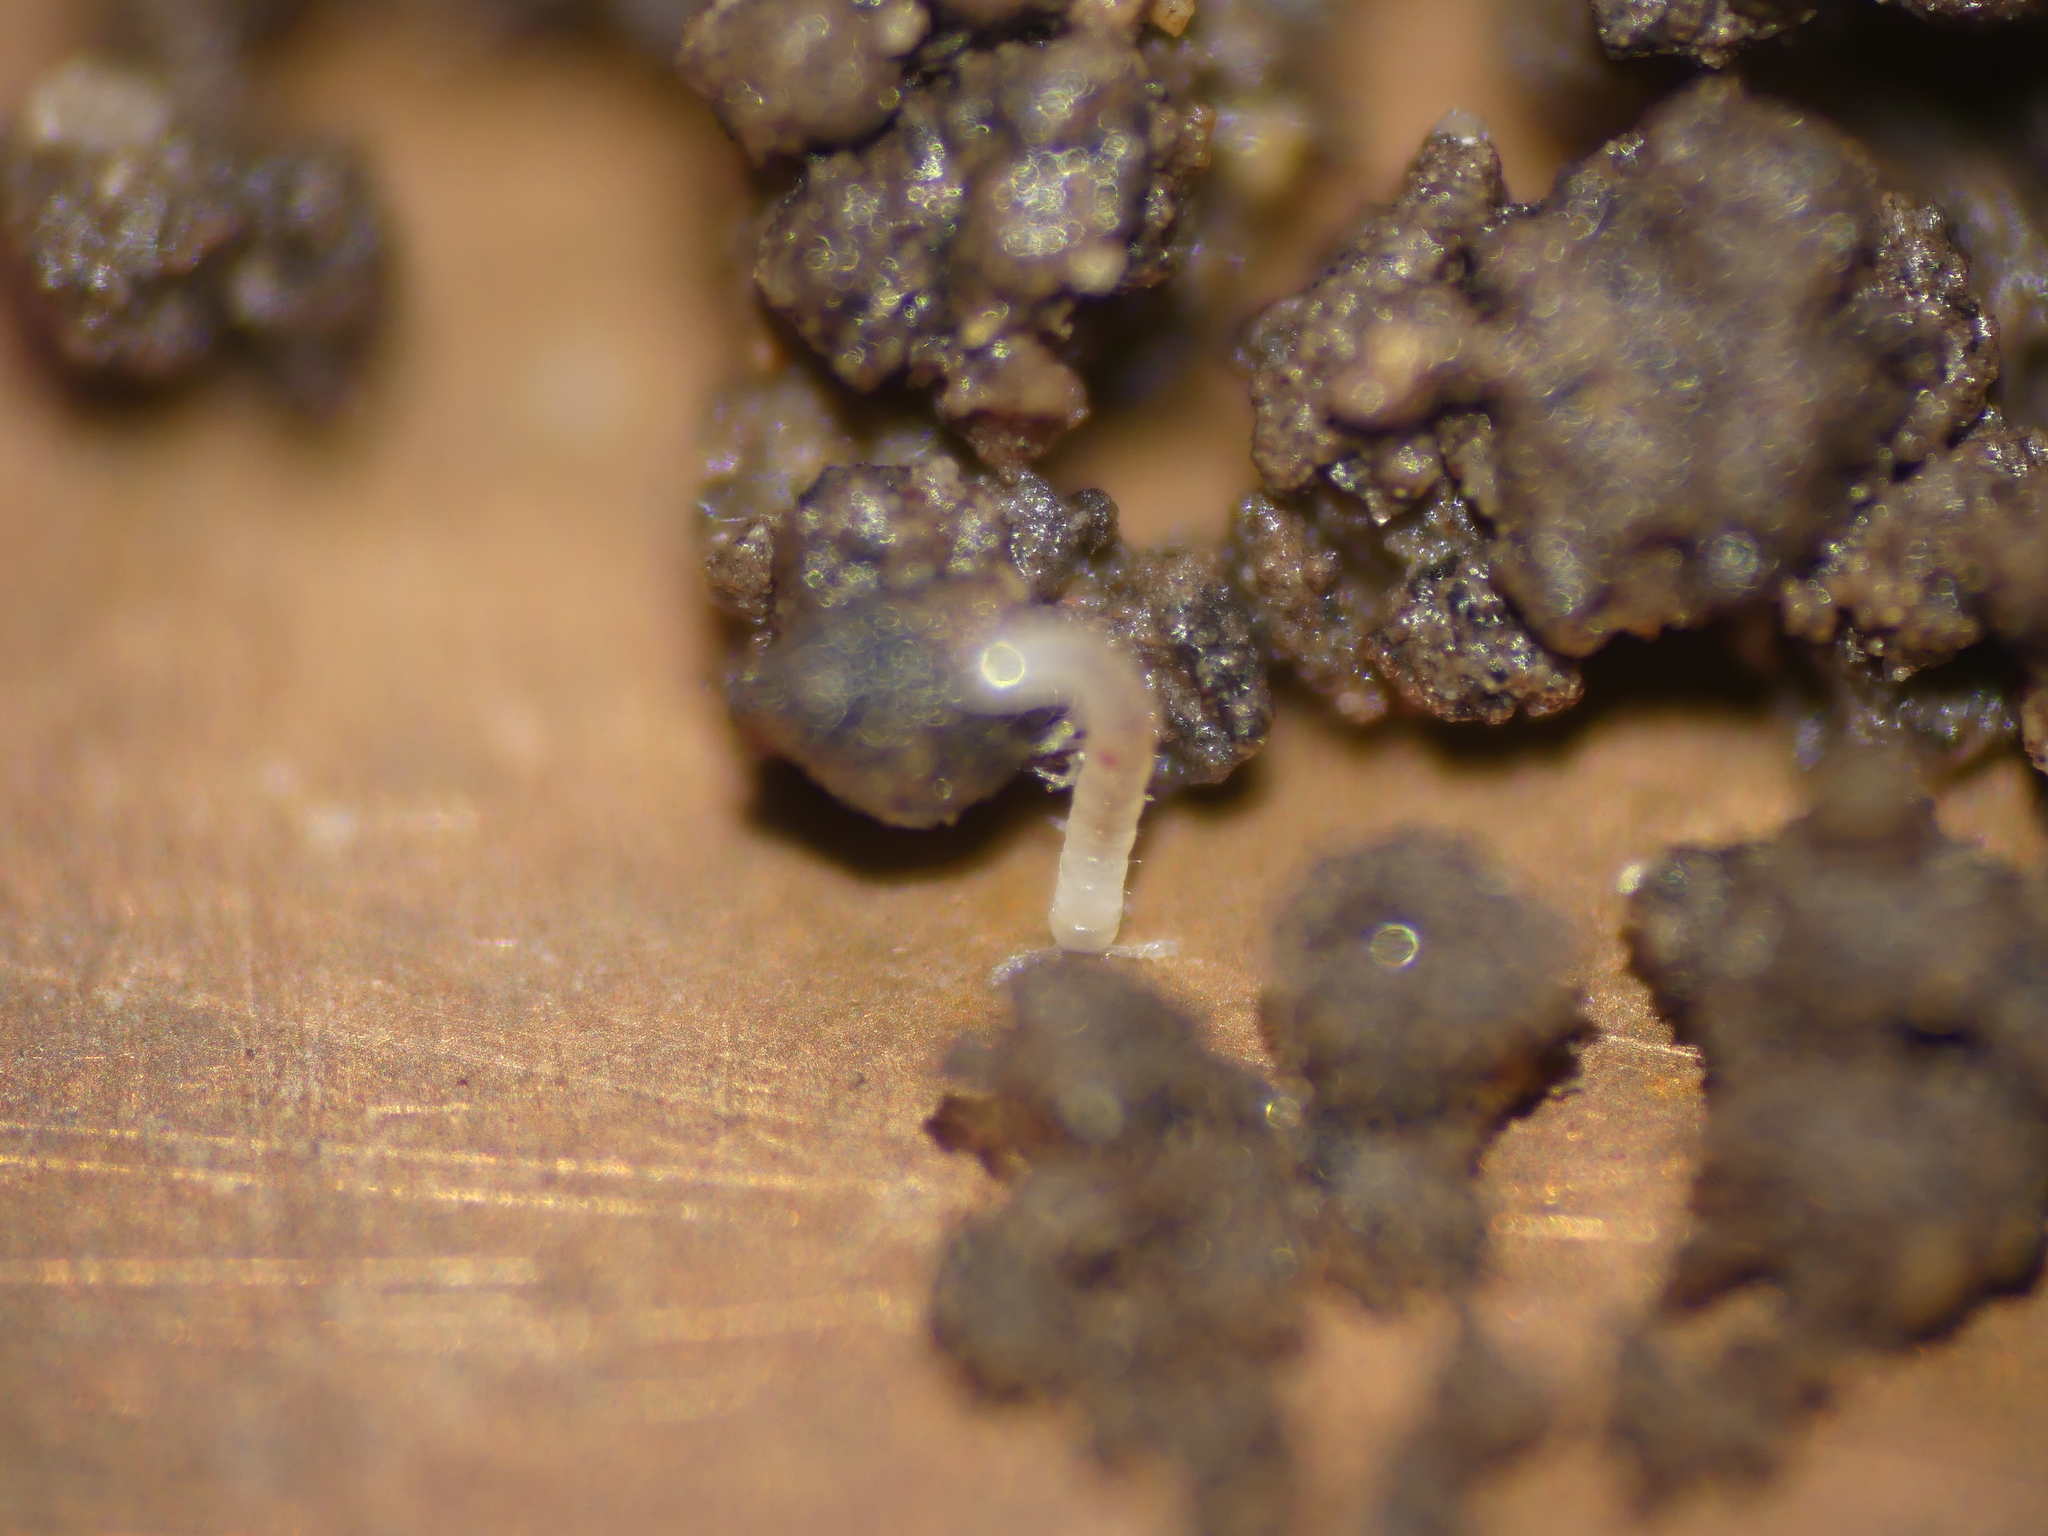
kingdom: Animalia
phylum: Arthropoda
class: Diplopoda
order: Julida
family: Blaniulidae
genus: Blaniulus
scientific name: Blaniulus guttulatus
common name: Spotted snake millipede
